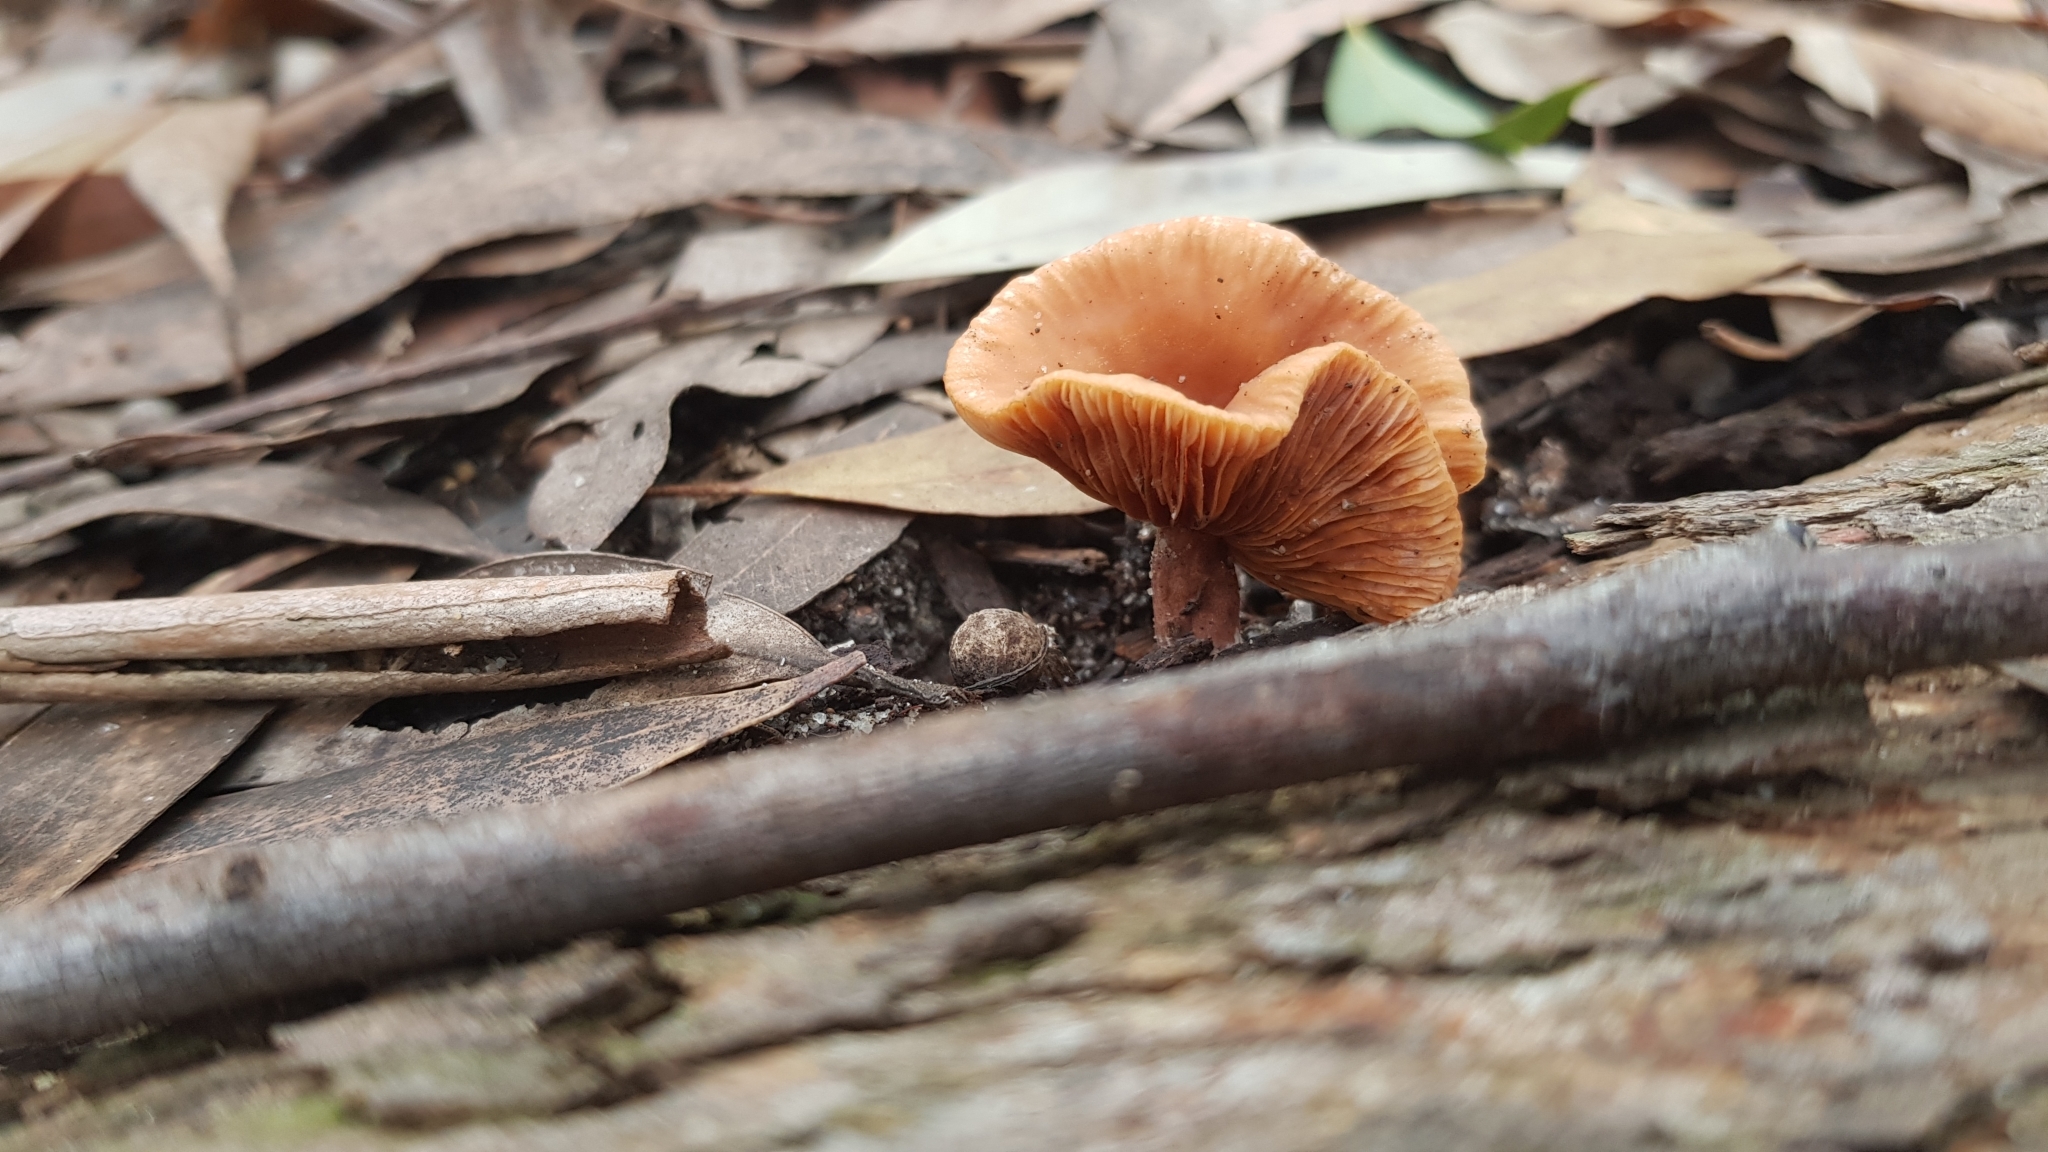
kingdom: Fungi
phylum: Basidiomycota
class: Agaricomycetes
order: Russulales
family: Russulaceae
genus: Lactarius
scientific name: Lactarius eucalypti
